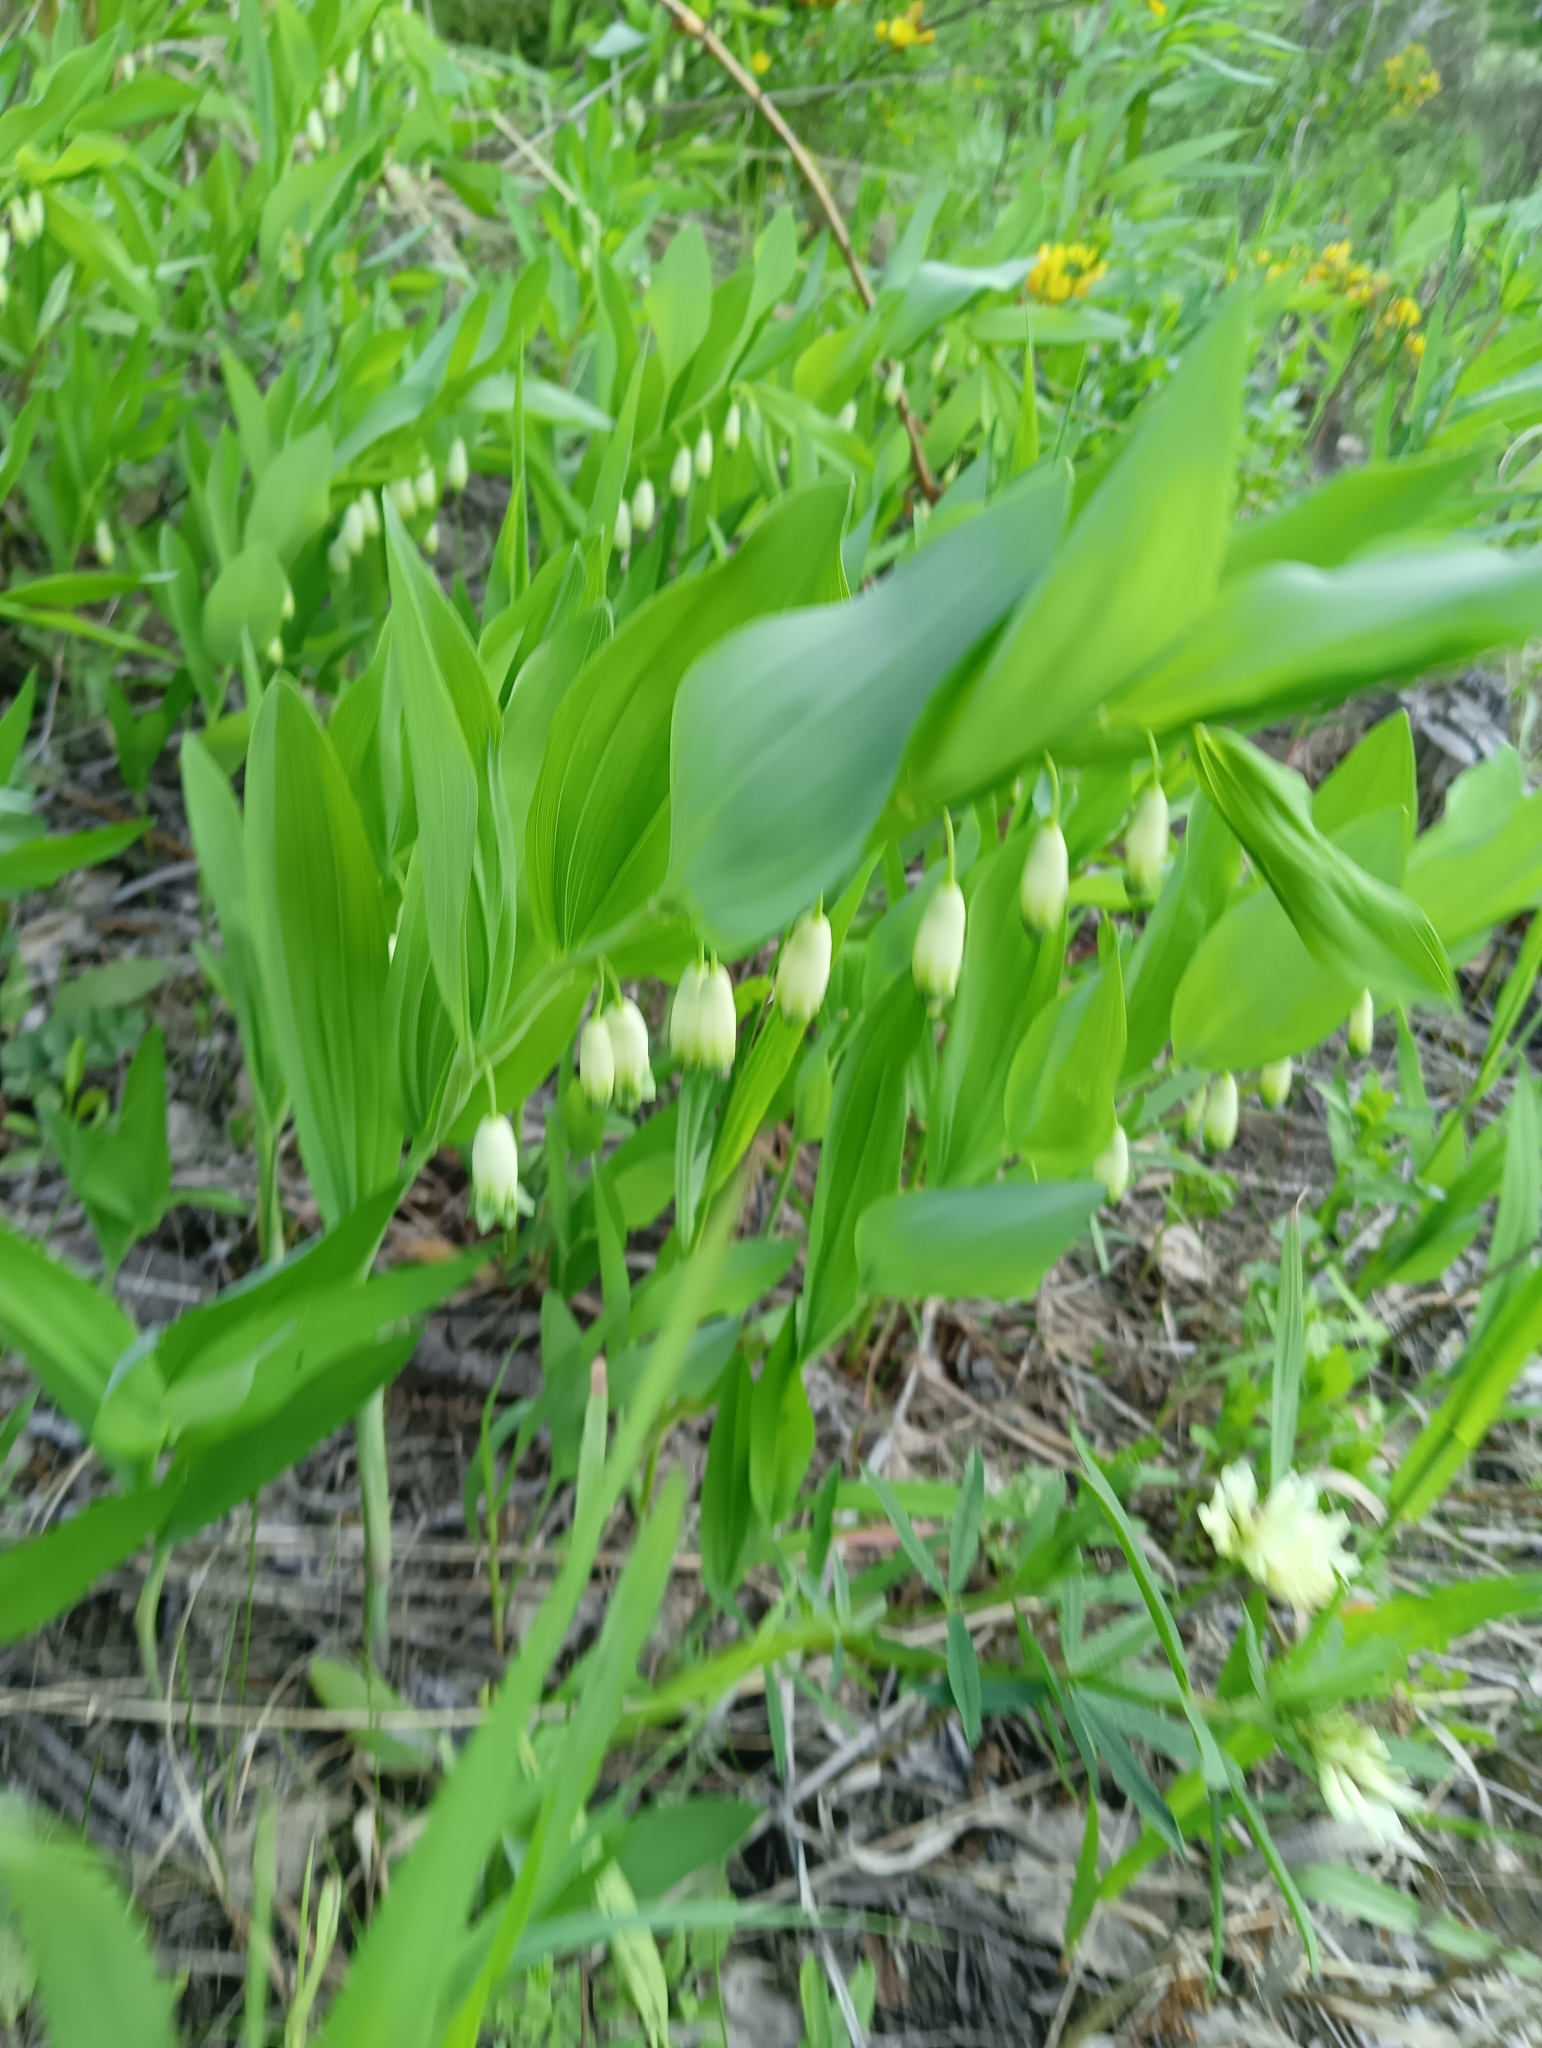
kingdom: Plantae
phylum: Tracheophyta
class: Liliopsida
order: Asparagales
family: Asparagaceae
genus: Polygonatum
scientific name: Polygonatum odoratum
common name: Angular solomon's-seal
